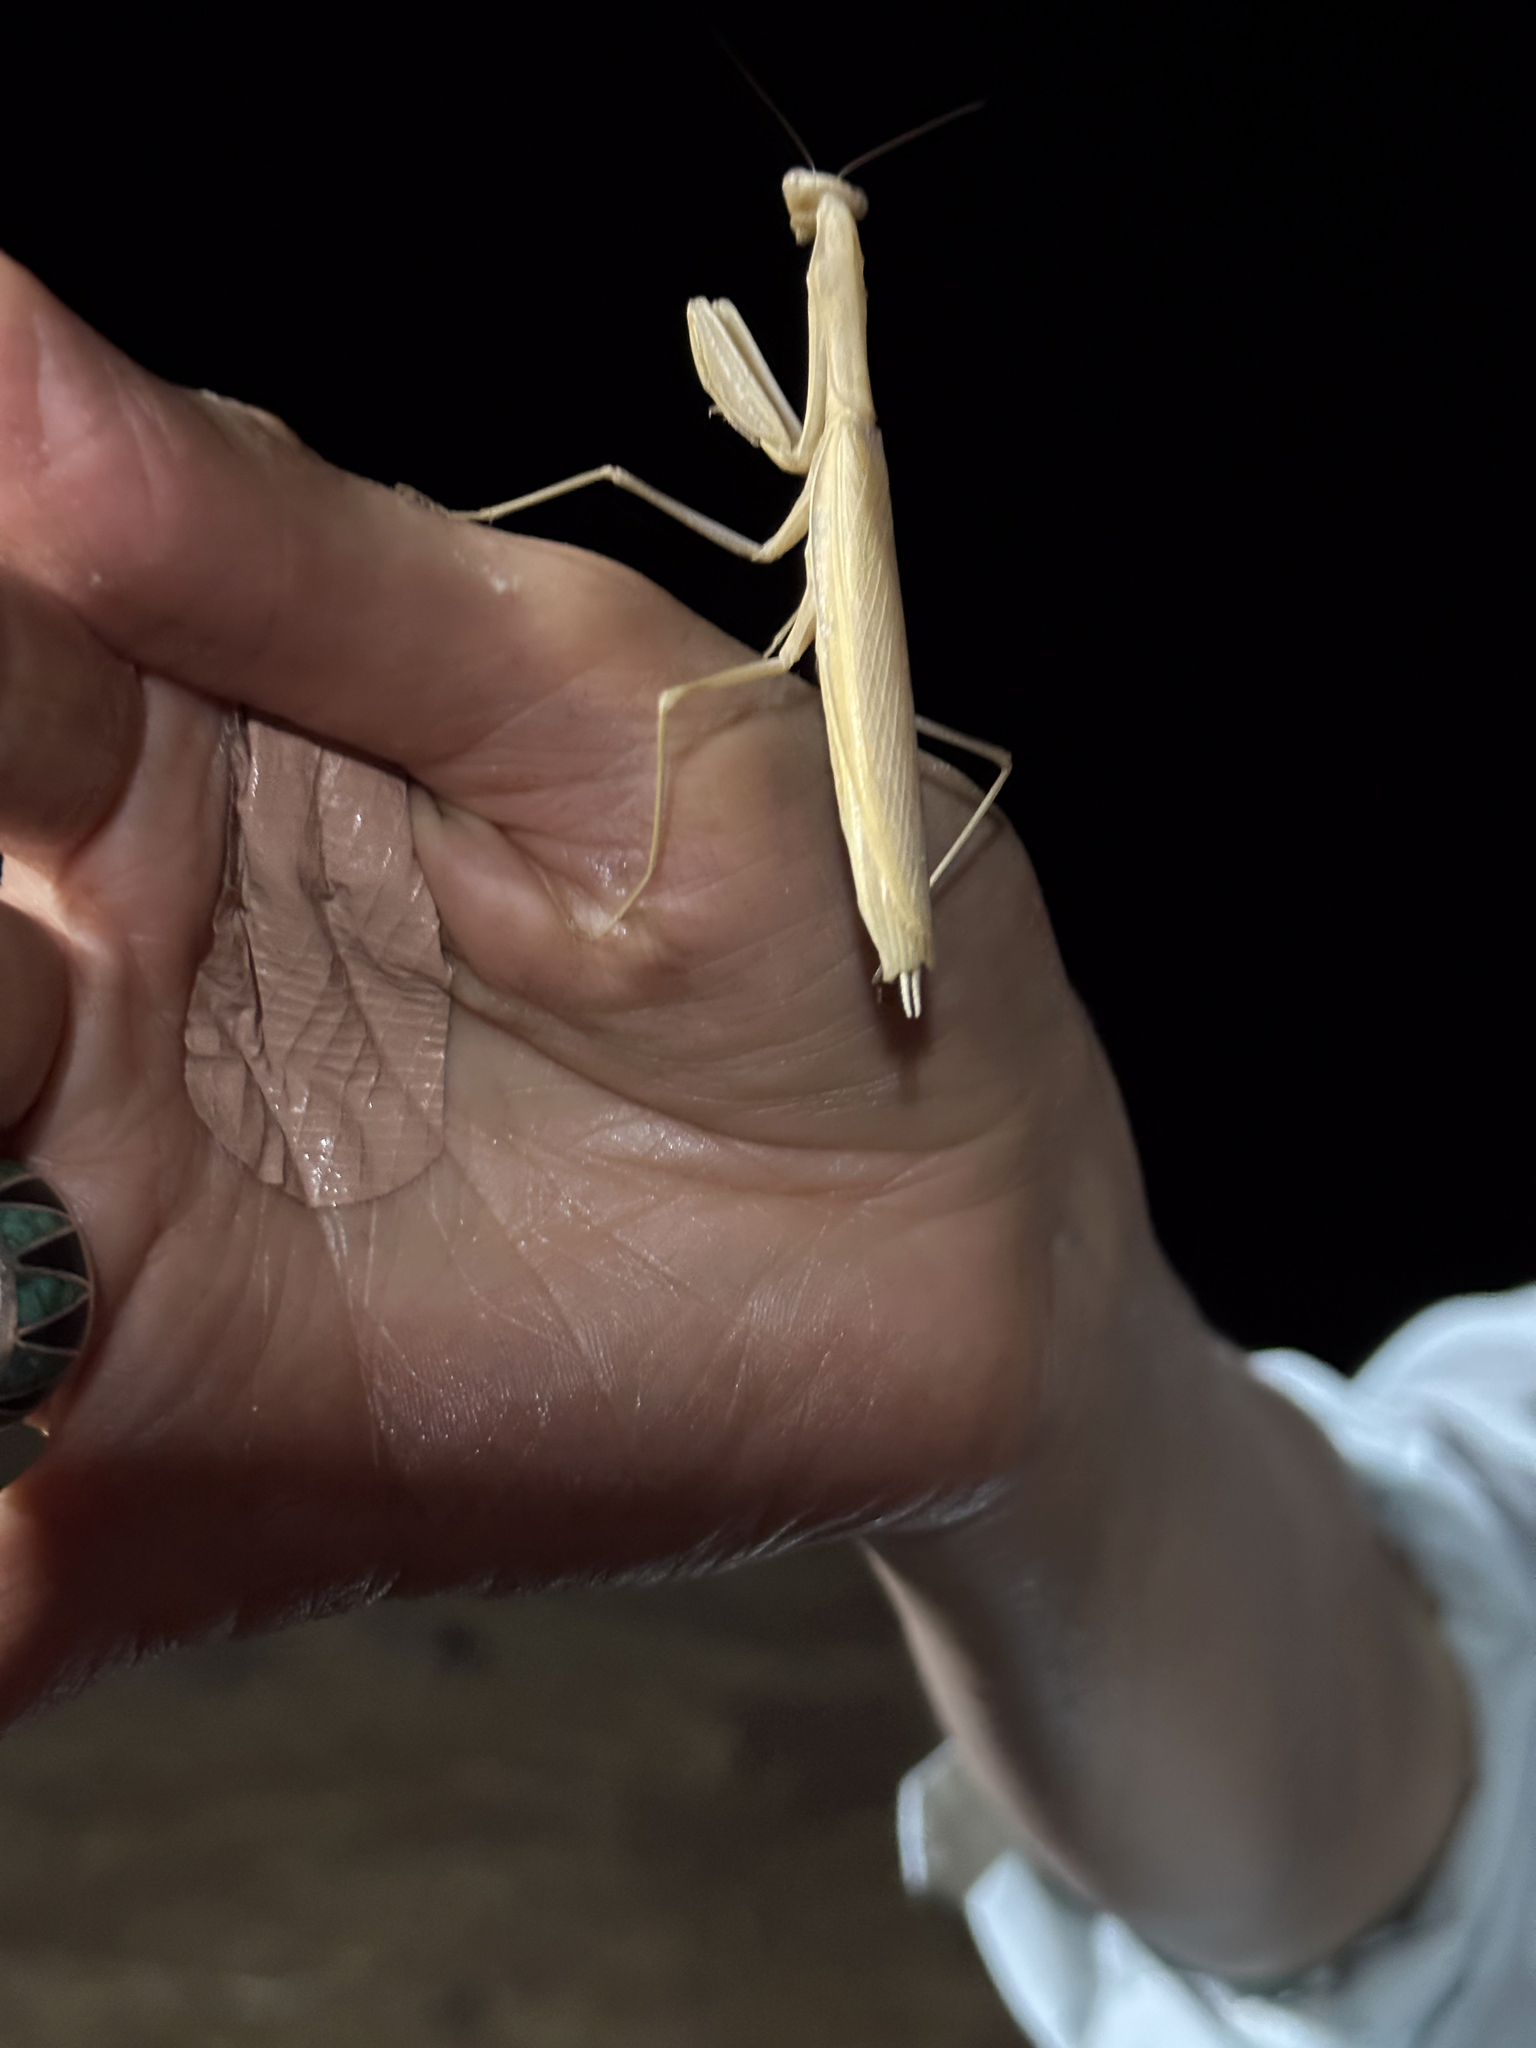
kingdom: Animalia
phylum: Arthropoda
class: Insecta
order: Mantodea
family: Mantidae
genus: Mantis
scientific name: Mantis octospilota
